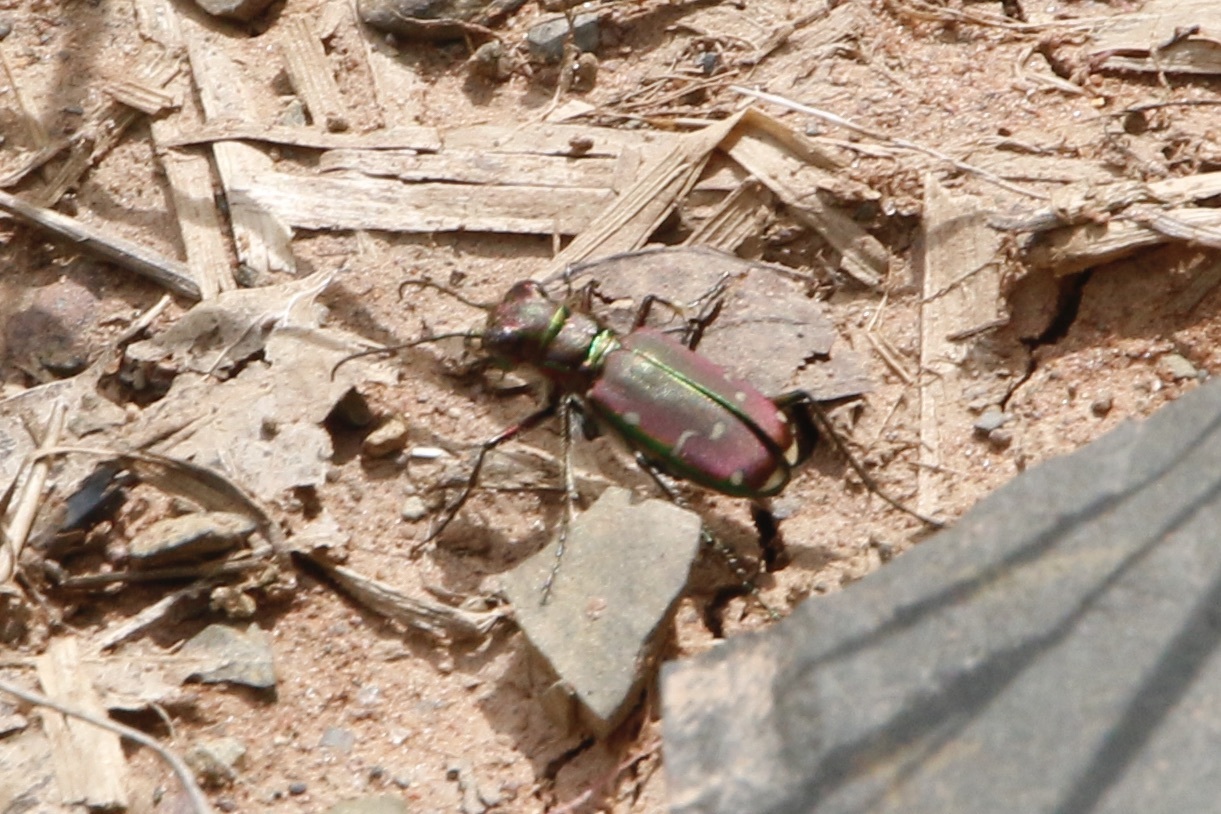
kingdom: Animalia
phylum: Arthropoda
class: Insecta
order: Coleoptera
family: Carabidae
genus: Cicindela
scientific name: Cicindela limbalis
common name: Common claybank tiger beetle
